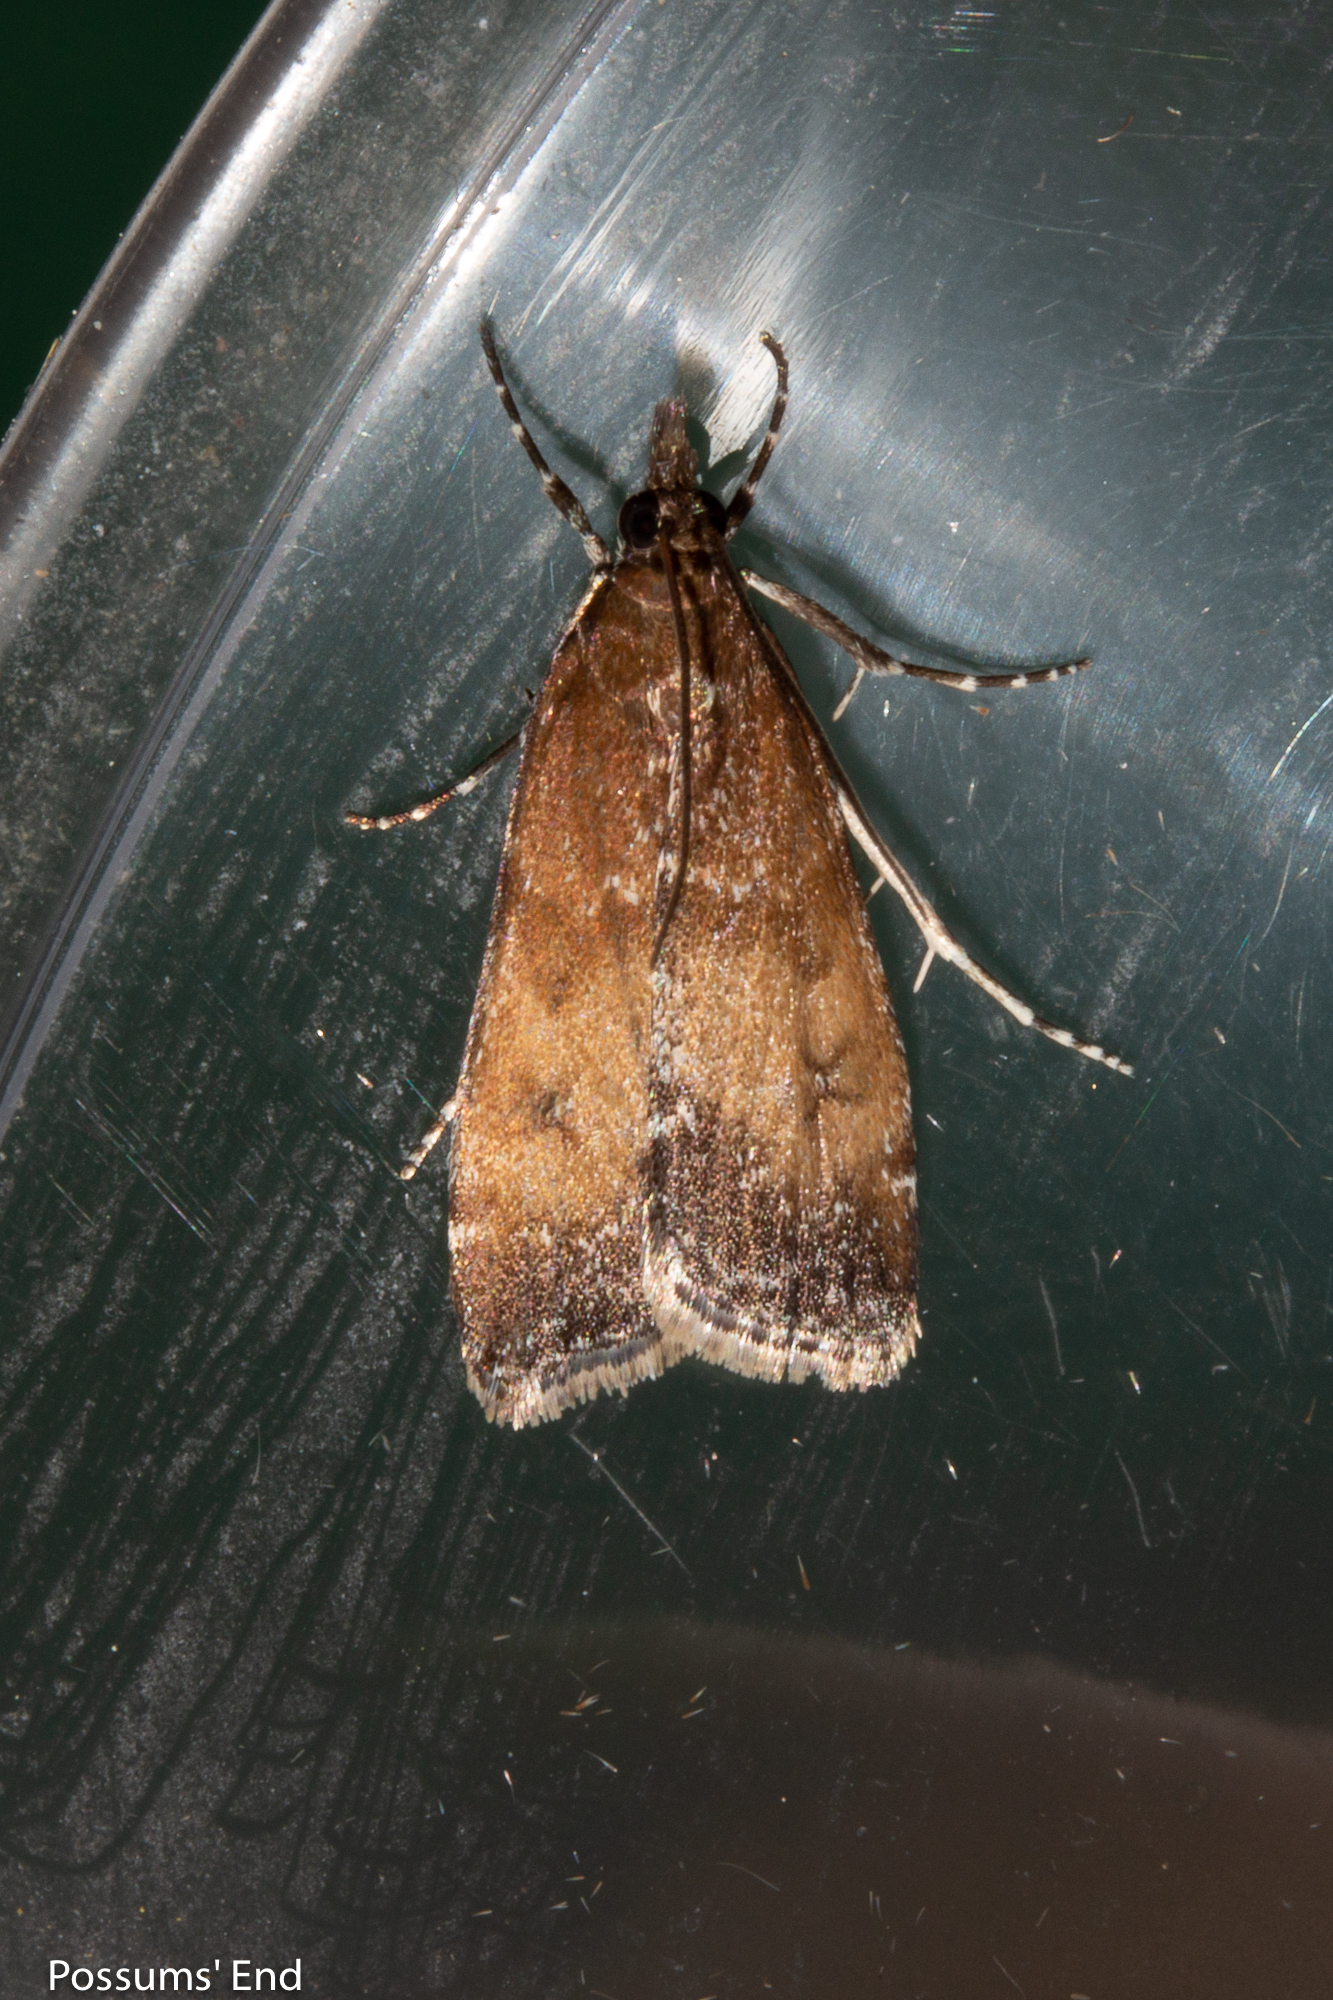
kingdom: Animalia
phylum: Arthropoda
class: Insecta
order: Lepidoptera
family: Crambidae
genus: Eudonia
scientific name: Eudonia asterisca
